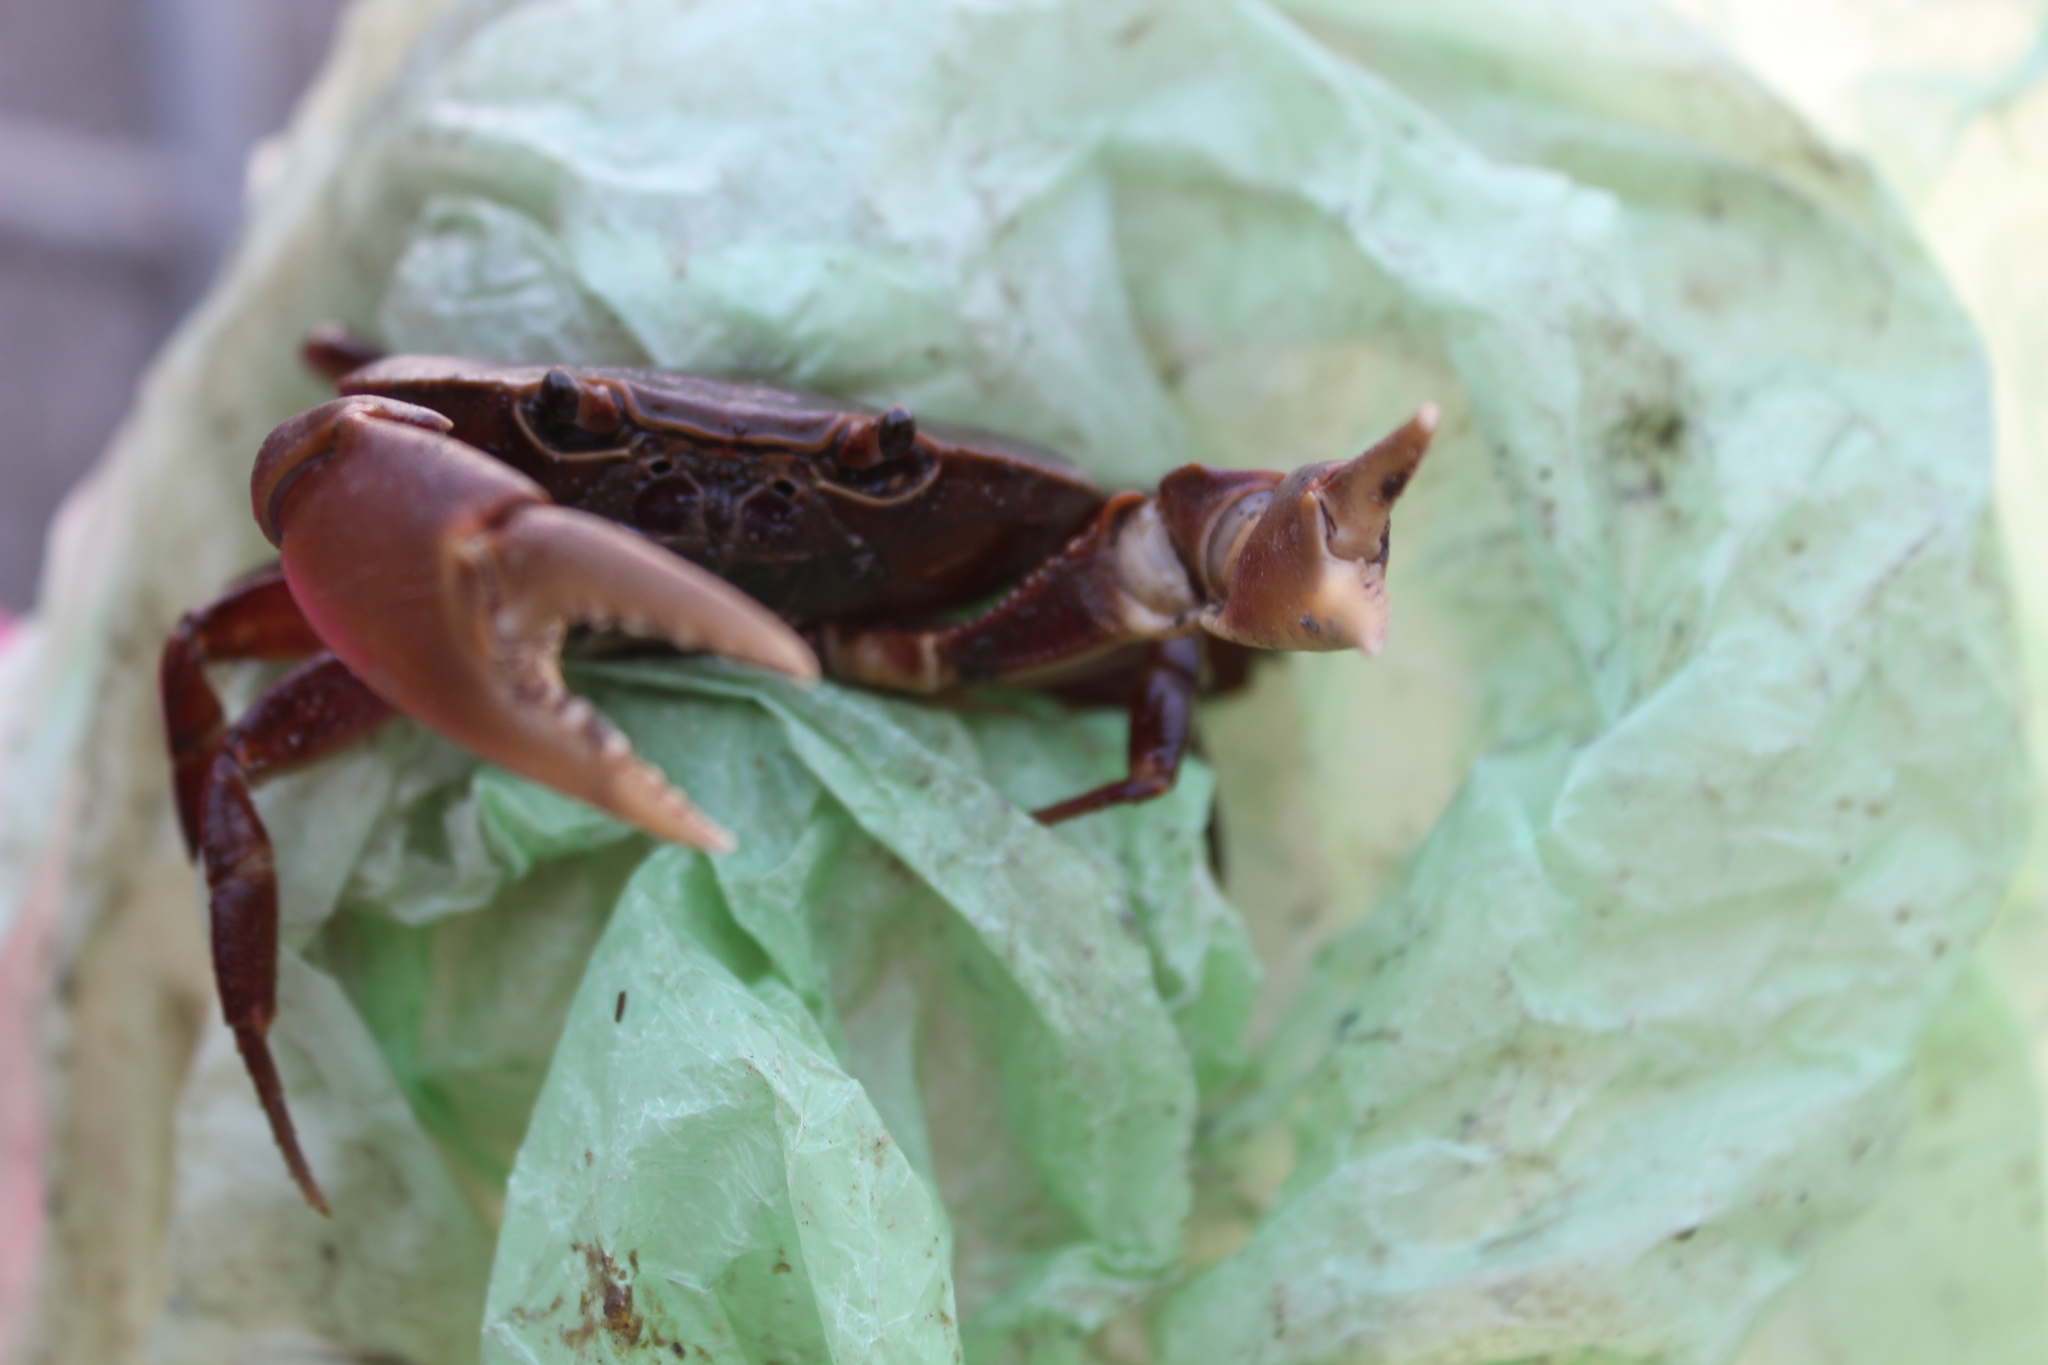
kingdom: Animalia
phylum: Arthropoda
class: Malacostraca
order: Decapoda
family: Pseudothelphusidae
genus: Pseudothelphusa
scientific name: Pseudothelphusa dugesi
